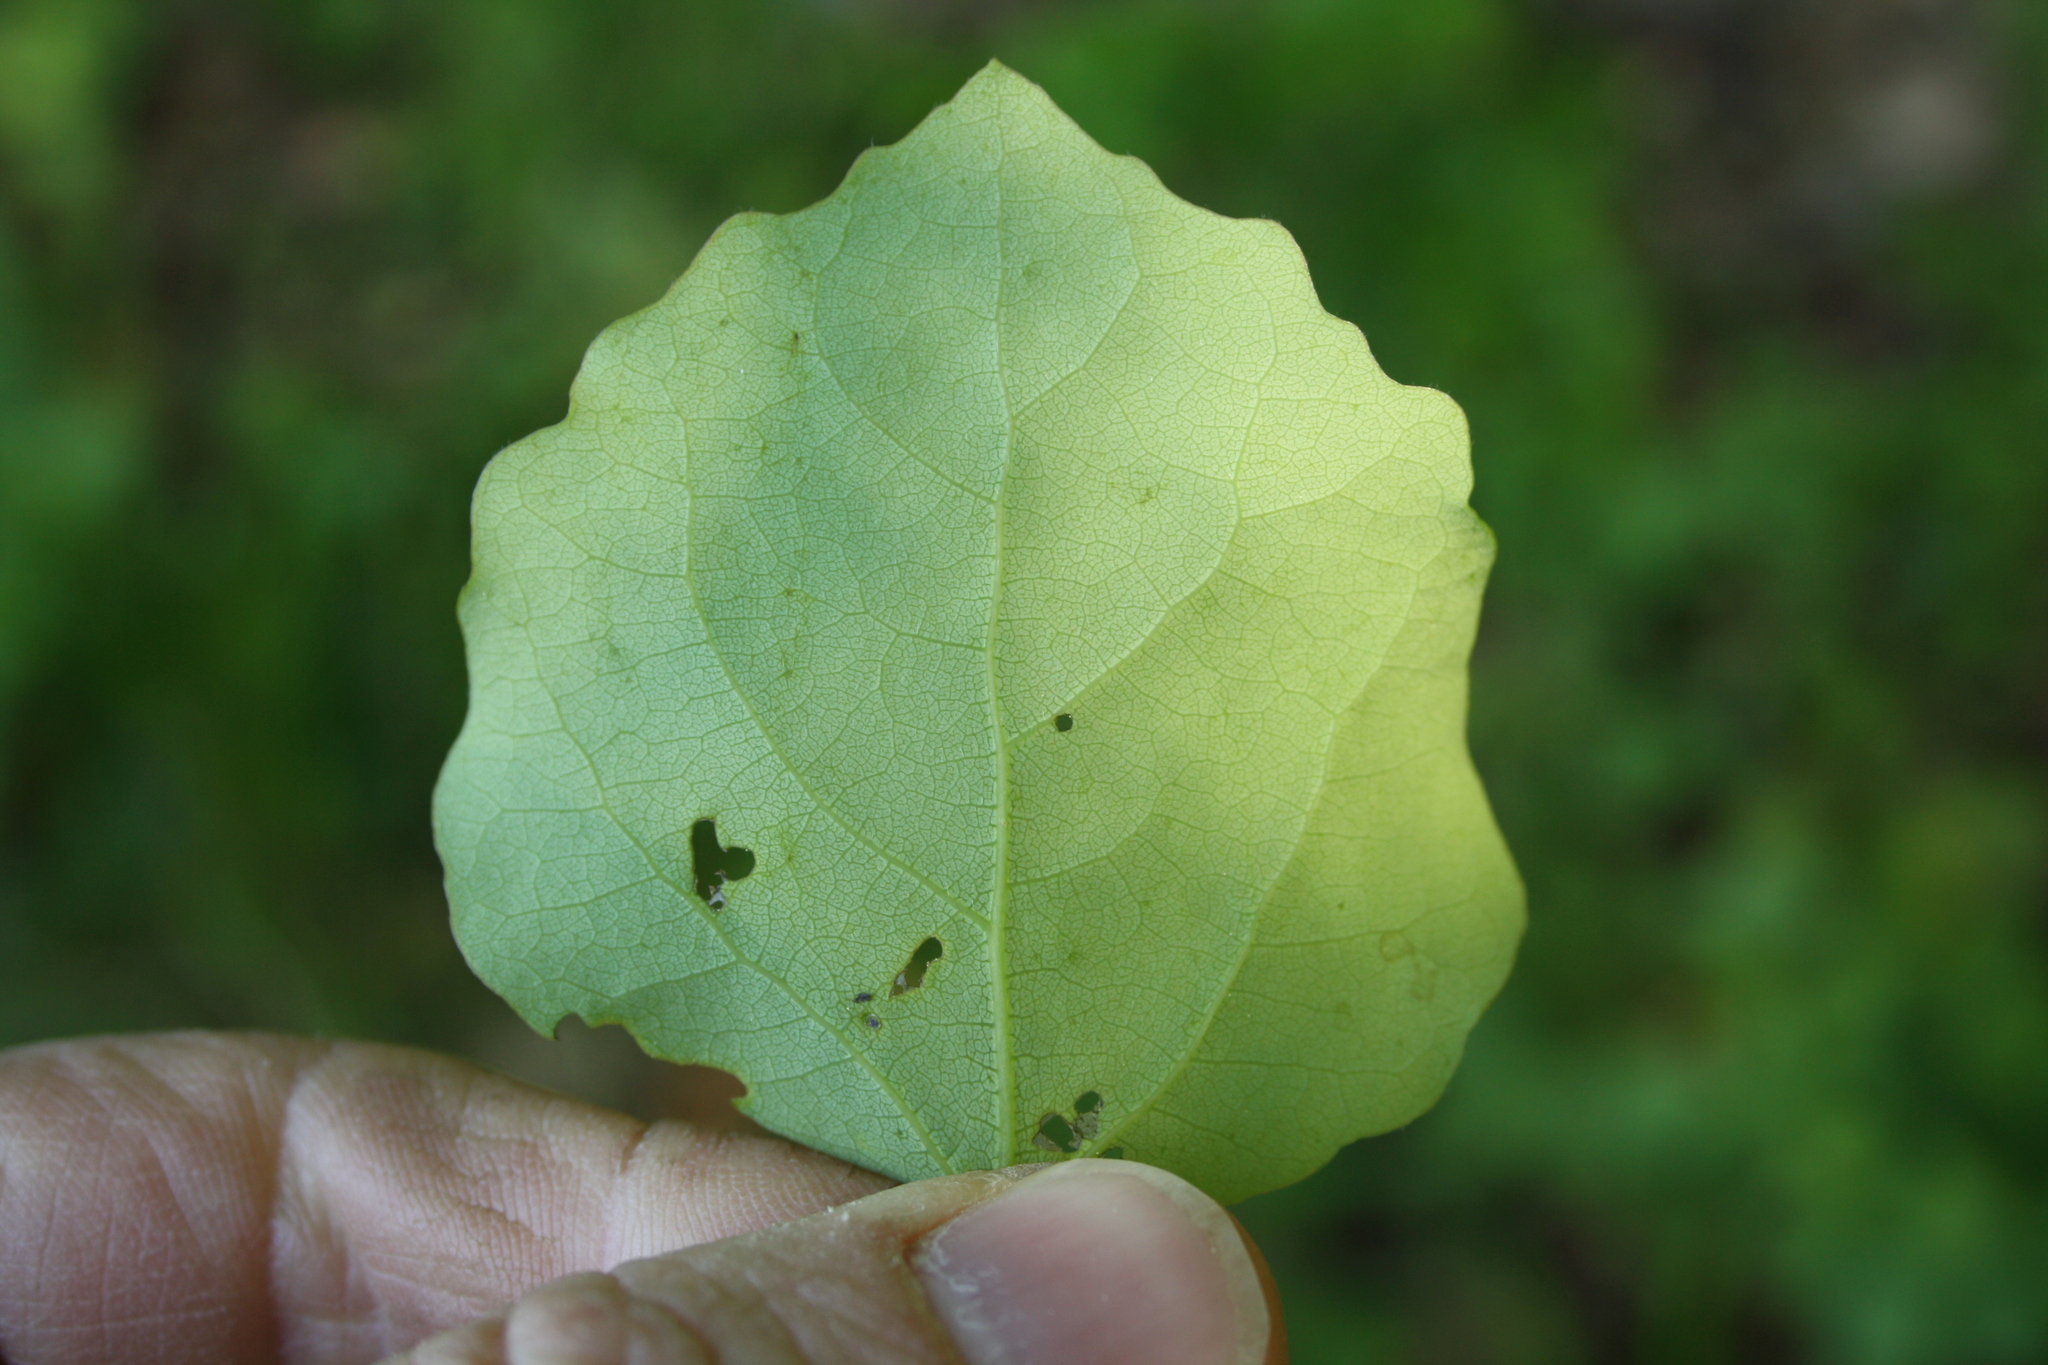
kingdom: Plantae
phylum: Tracheophyta
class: Magnoliopsida
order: Malpighiales
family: Salicaceae
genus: Populus
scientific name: Populus tremula
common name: European aspen
